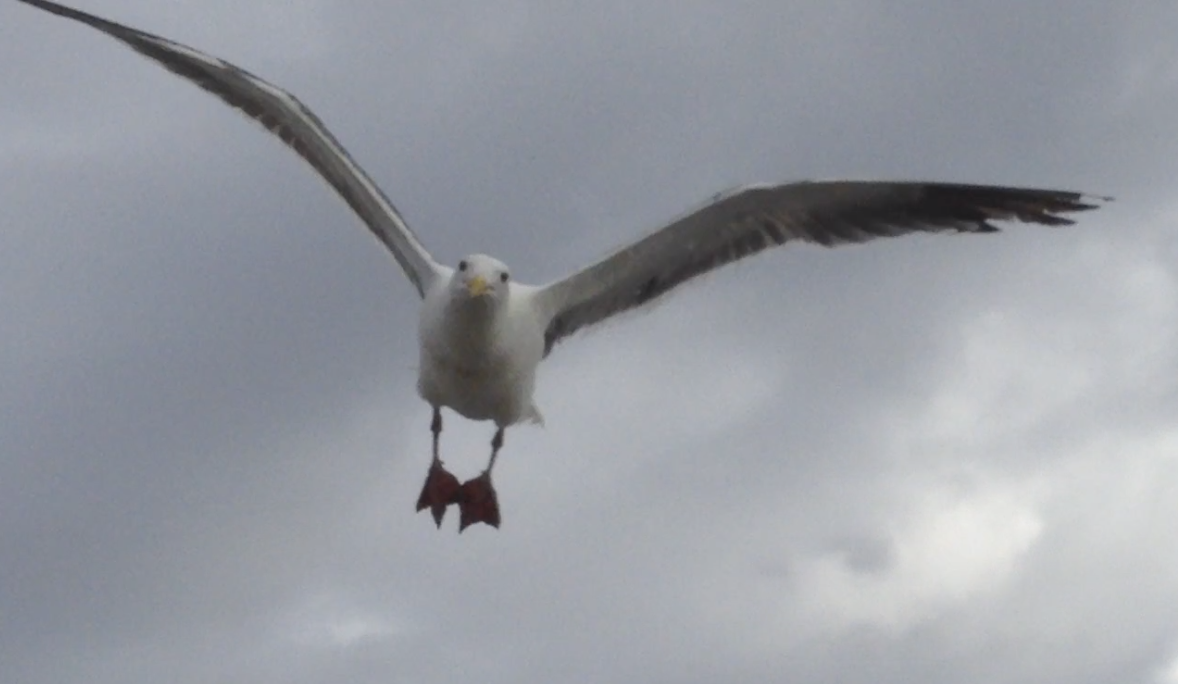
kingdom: Animalia
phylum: Chordata
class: Aves
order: Charadriiformes
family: Laridae
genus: Larus
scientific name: Larus occidentalis
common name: Western gull
